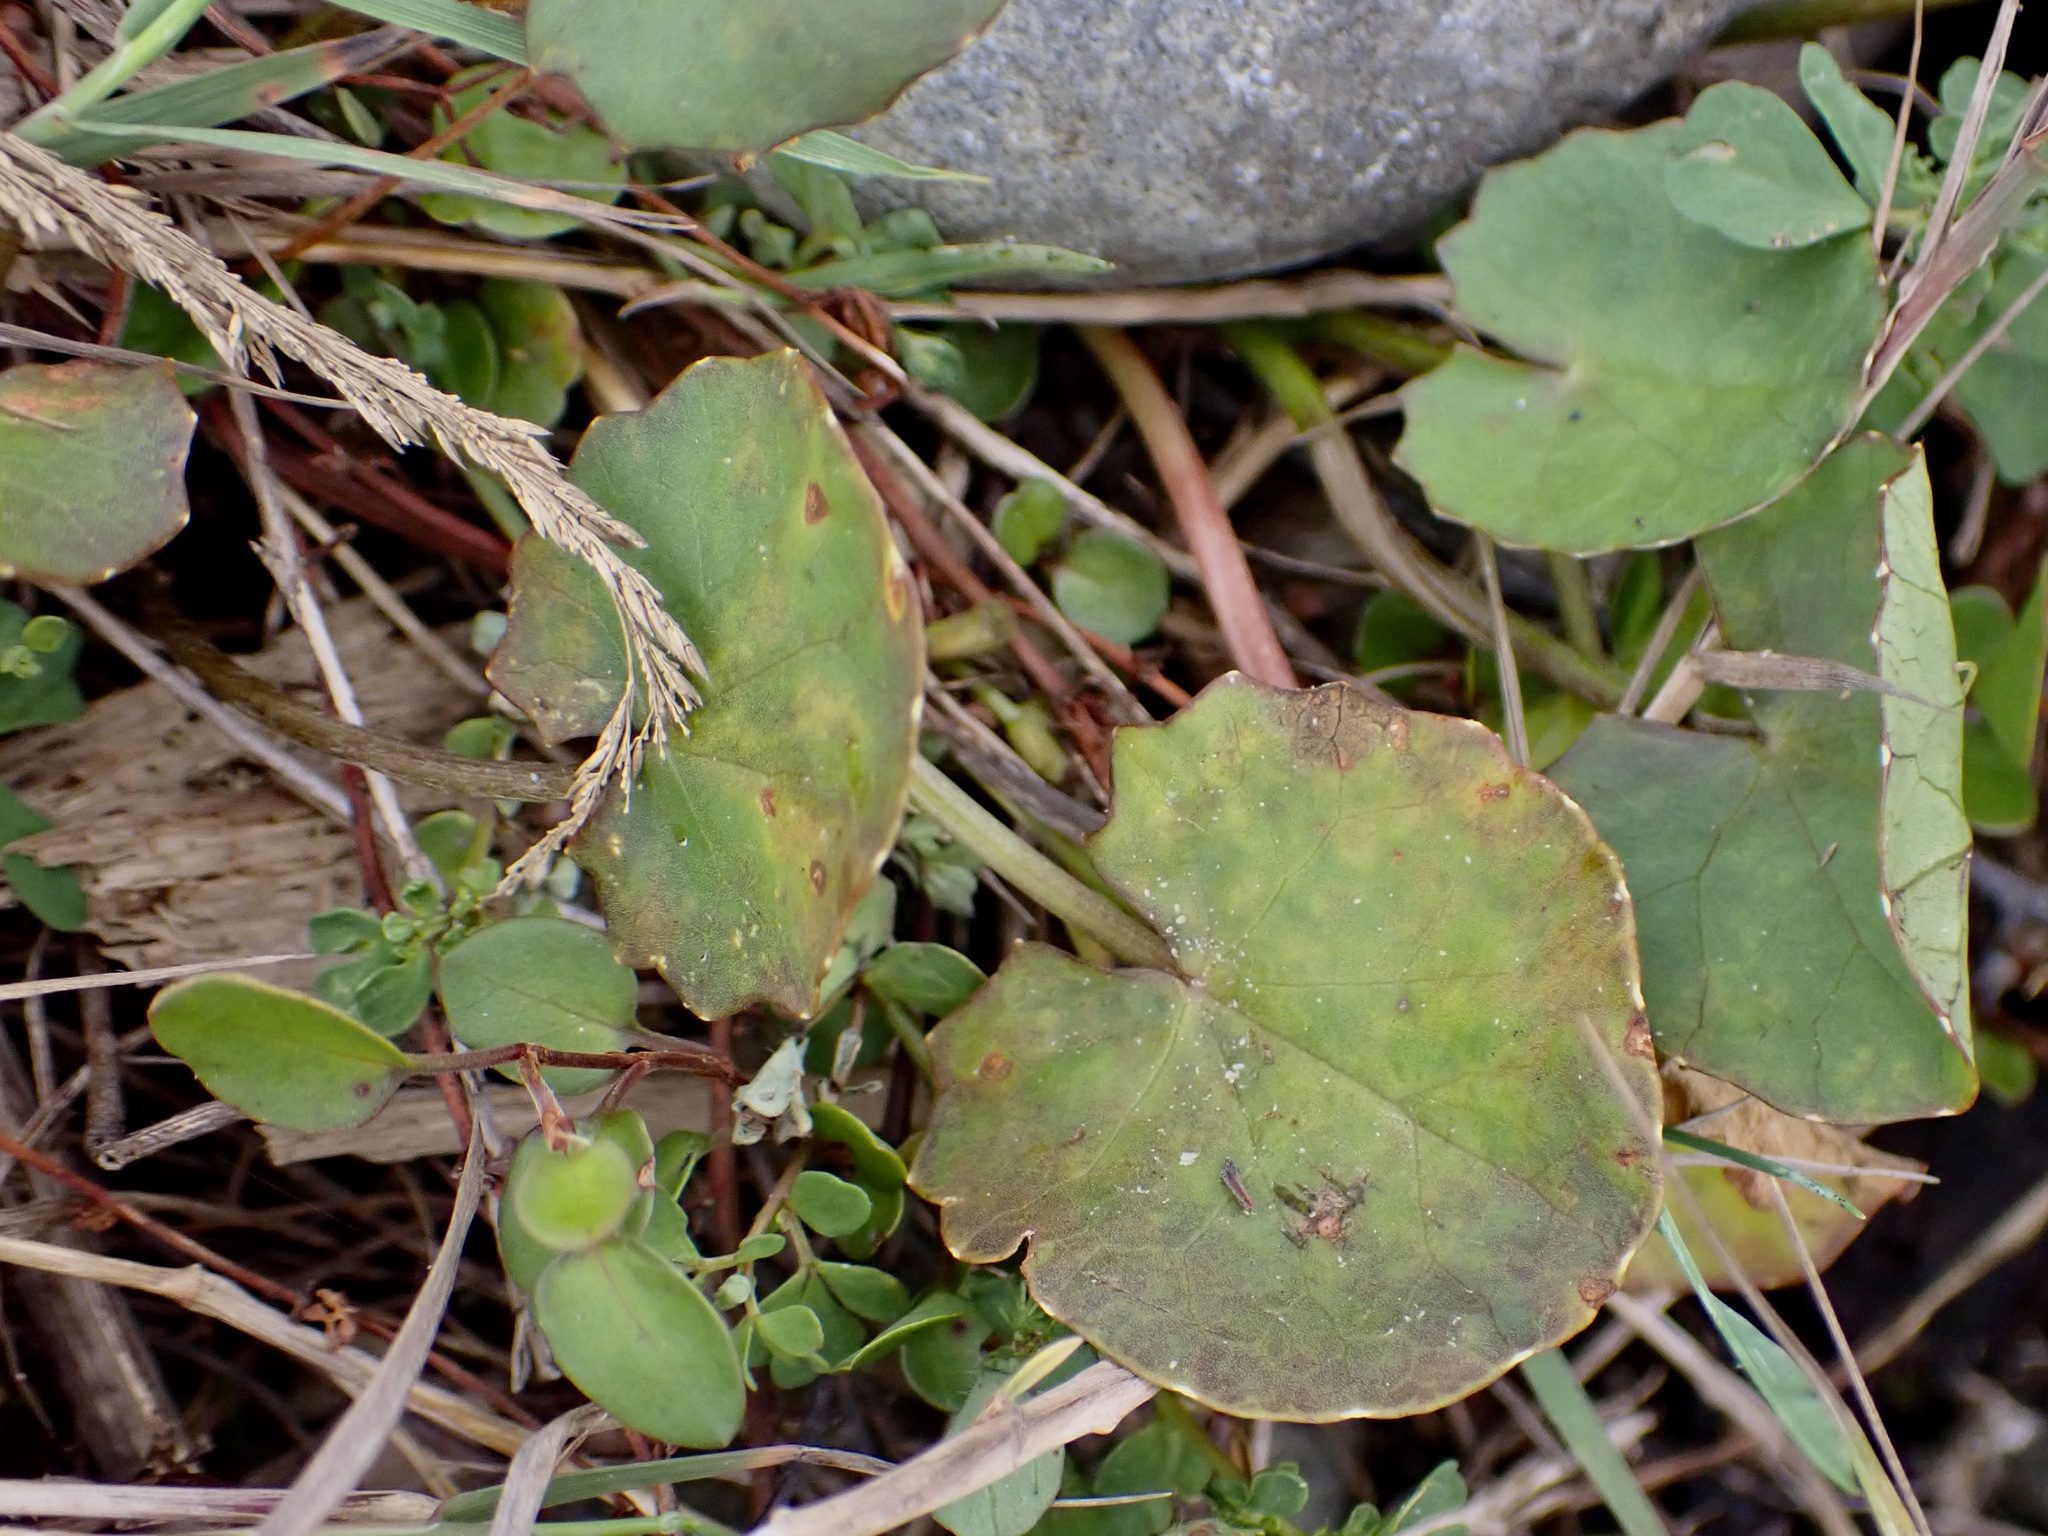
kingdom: Plantae
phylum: Tracheophyta
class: Magnoliopsida
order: Apiales
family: Apiaceae
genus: Centella
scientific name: Centella uniflora
